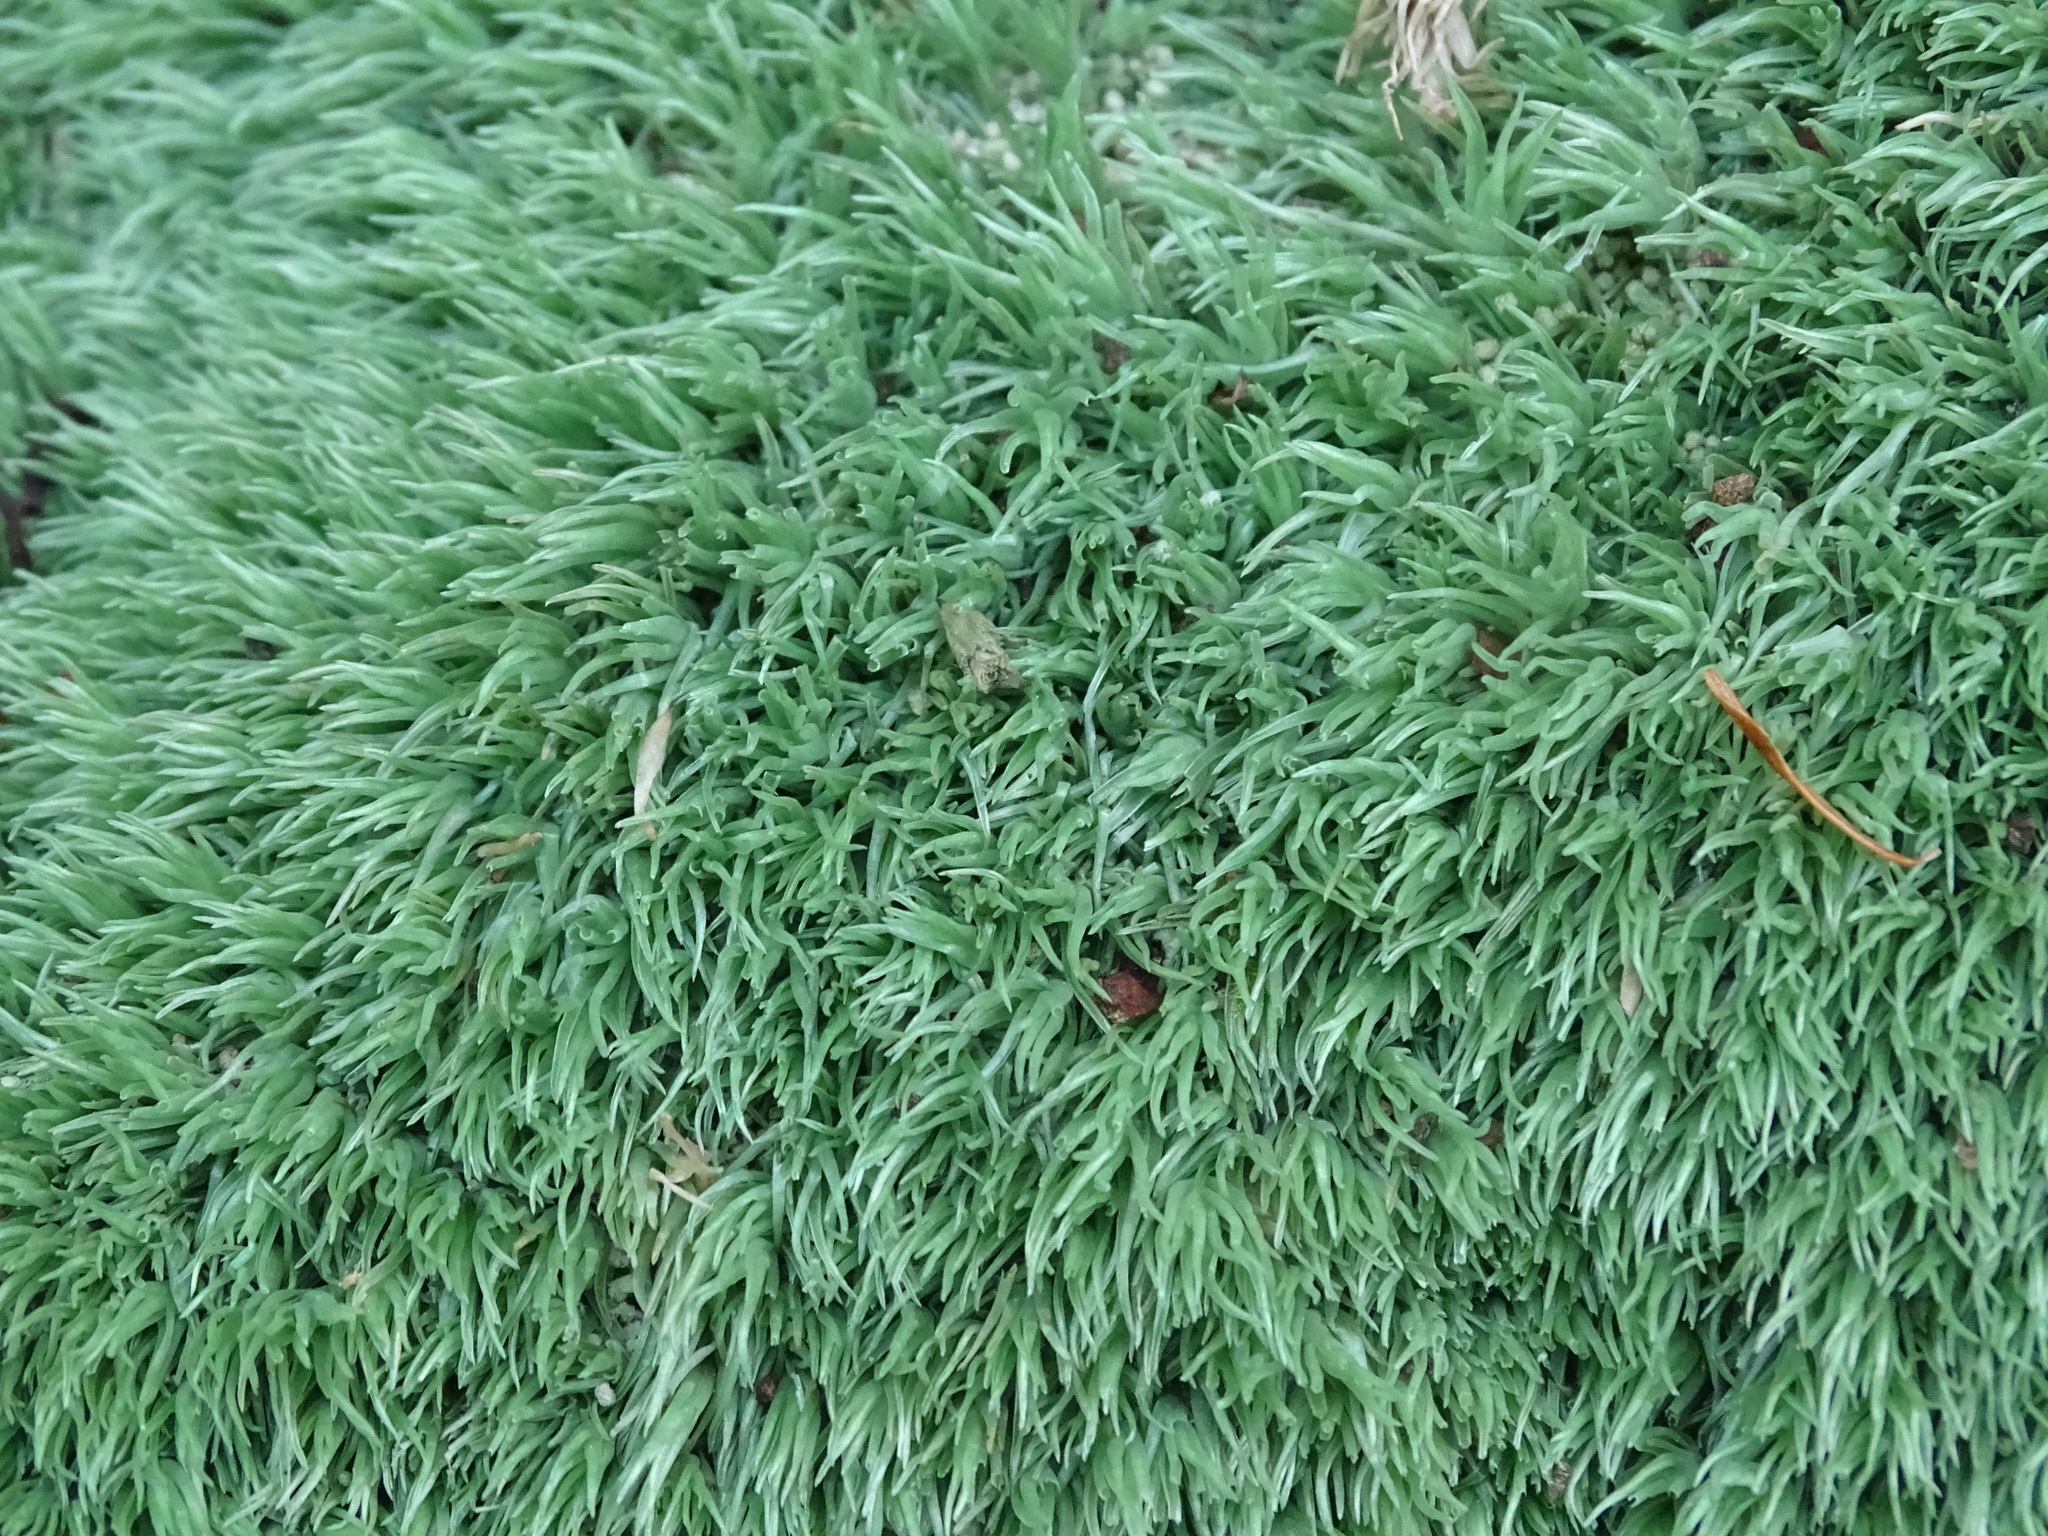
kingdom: Plantae
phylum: Bryophyta
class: Bryopsida
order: Dicranales
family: Leucobryaceae
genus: Leucobryum
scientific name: Leucobryum glaucum
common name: Large white-moss
